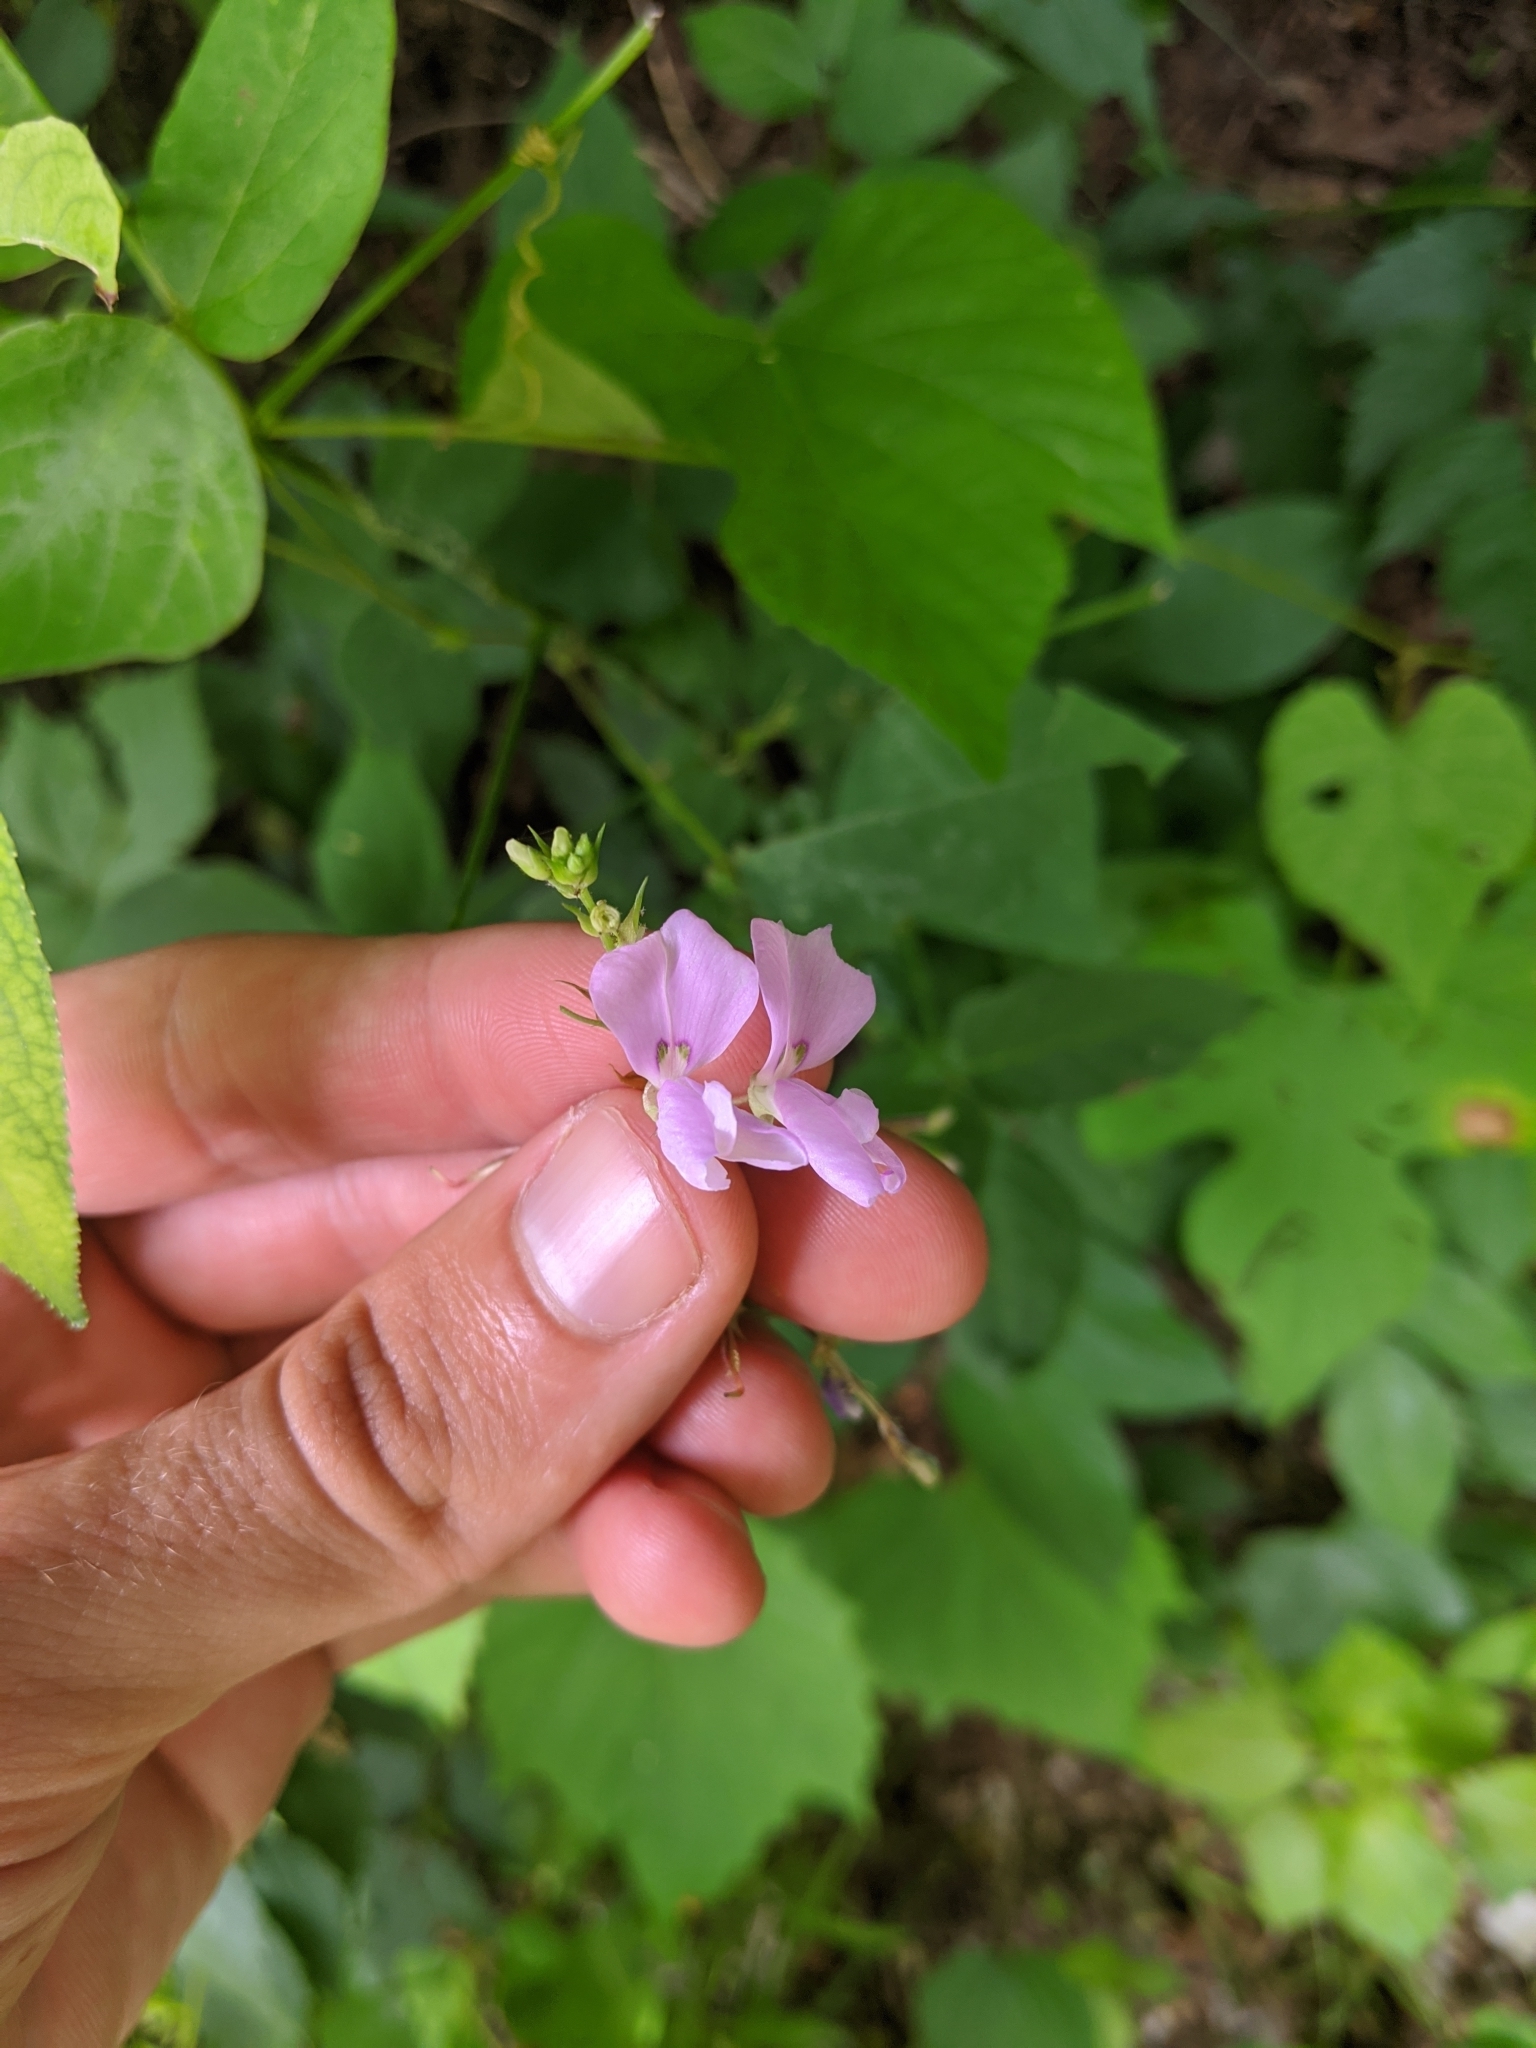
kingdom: Plantae
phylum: Tracheophyta
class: Magnoliopsida
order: Fabales
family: Fabaceae
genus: Desmodium
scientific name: Desmodium cuspidatum
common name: Big tick trefoil
